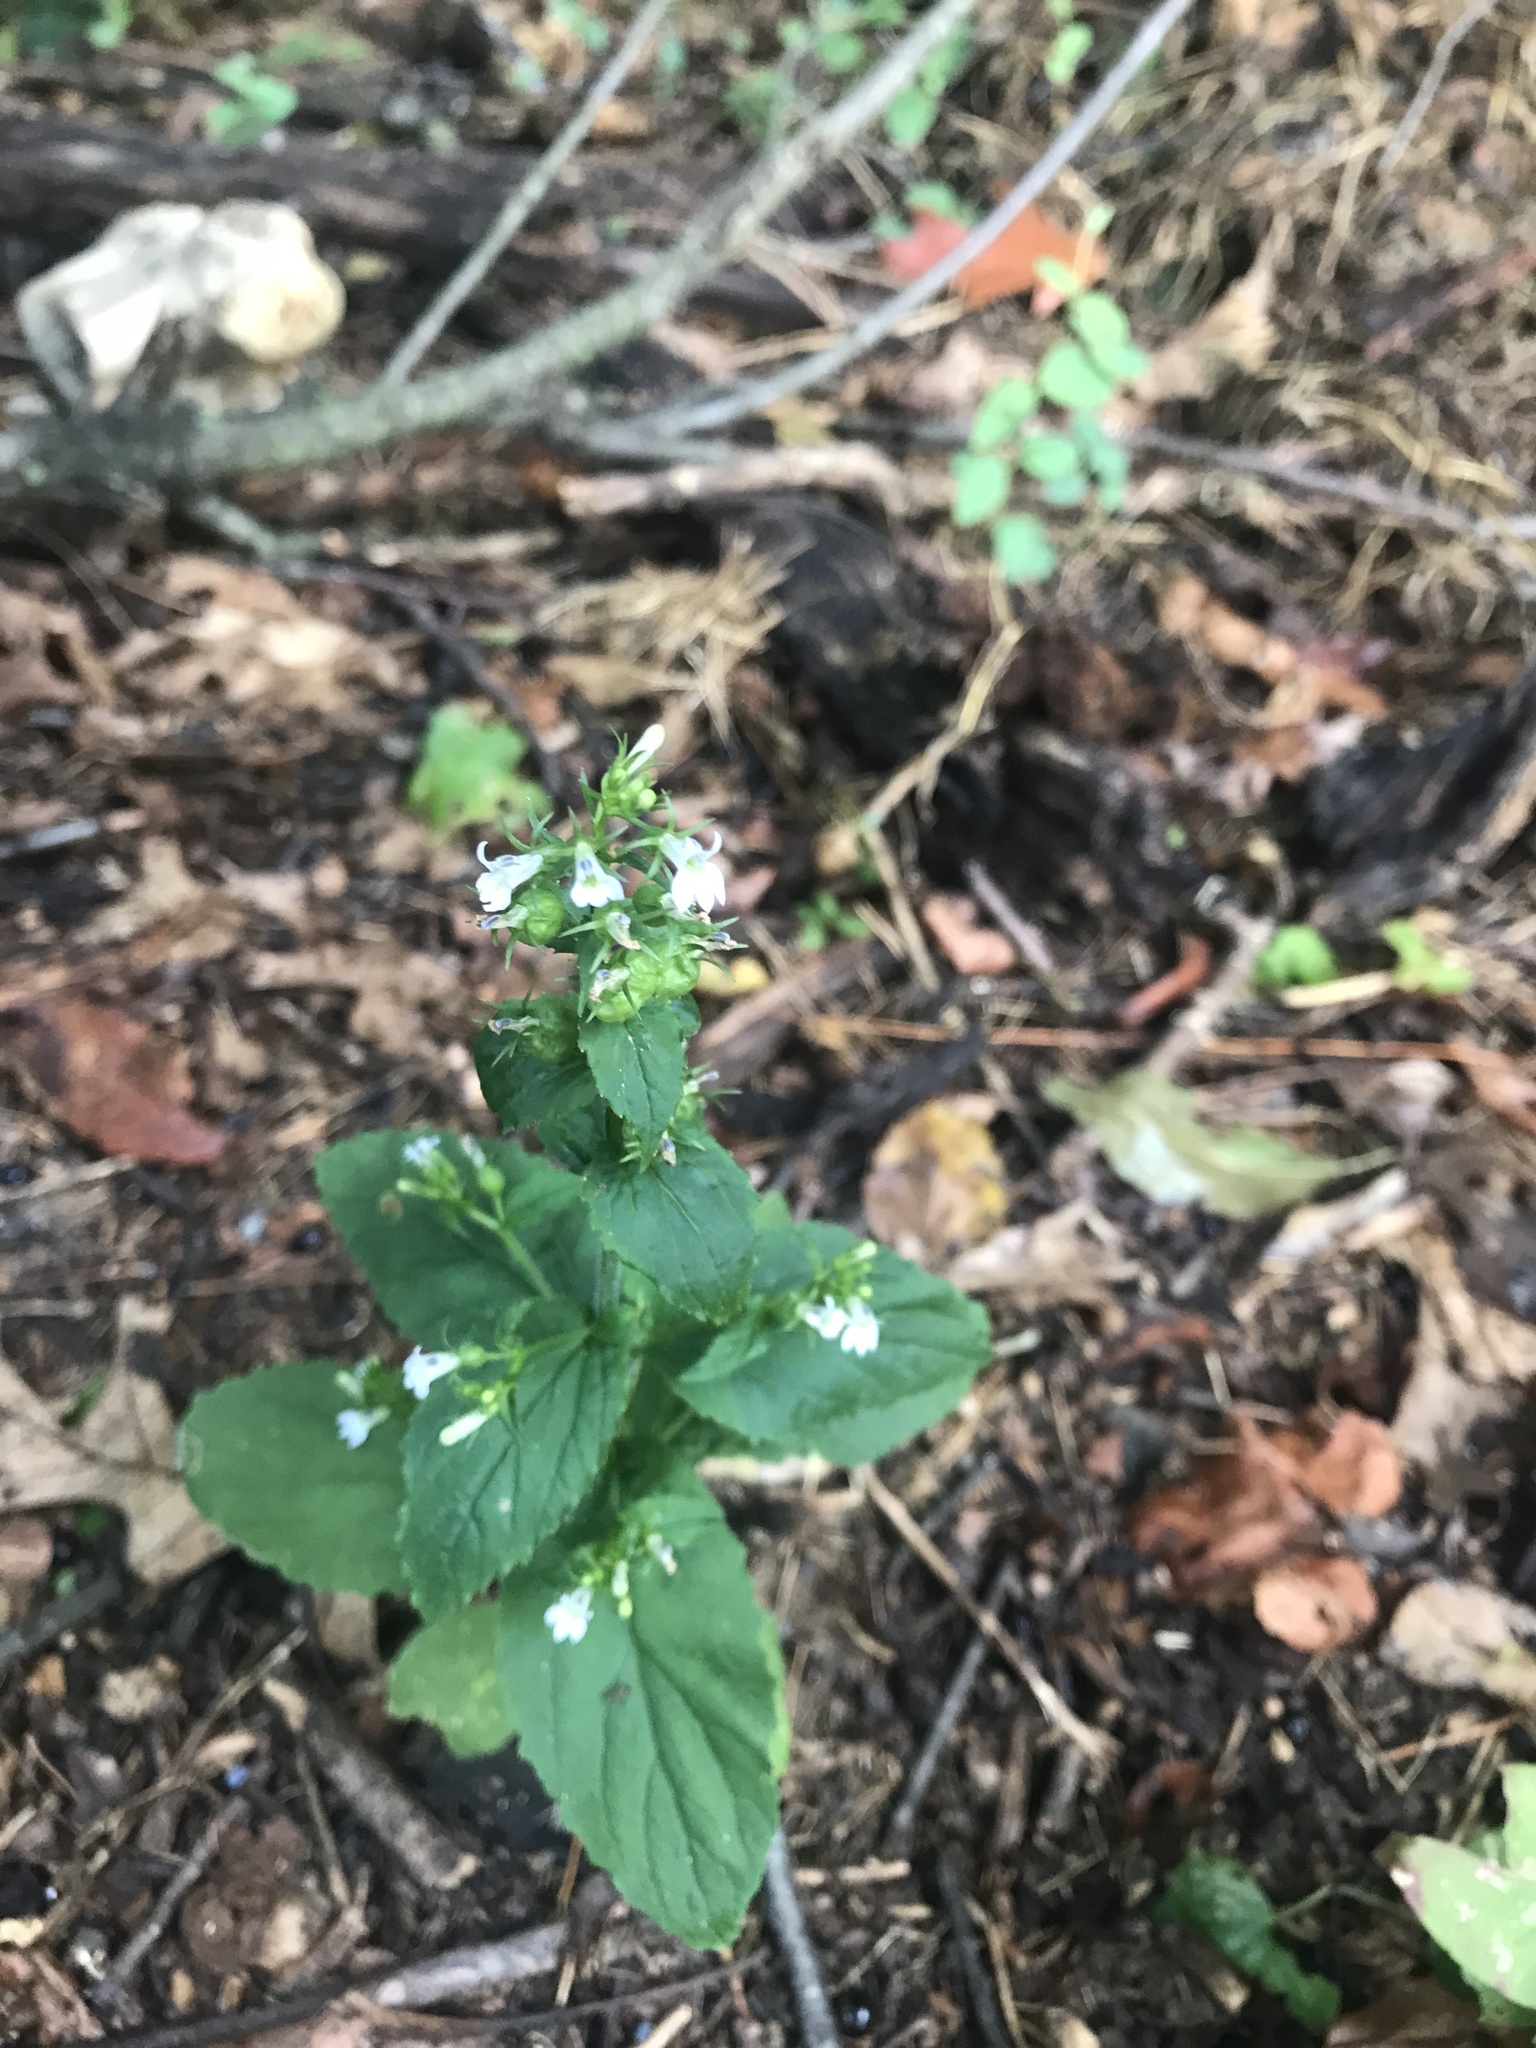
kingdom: Plantae
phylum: Tracheophyta
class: Magnoliopsida
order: Asterales
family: Campanulaceae
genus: Lobelia
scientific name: Lobelia inflata
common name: Indian tobacco
